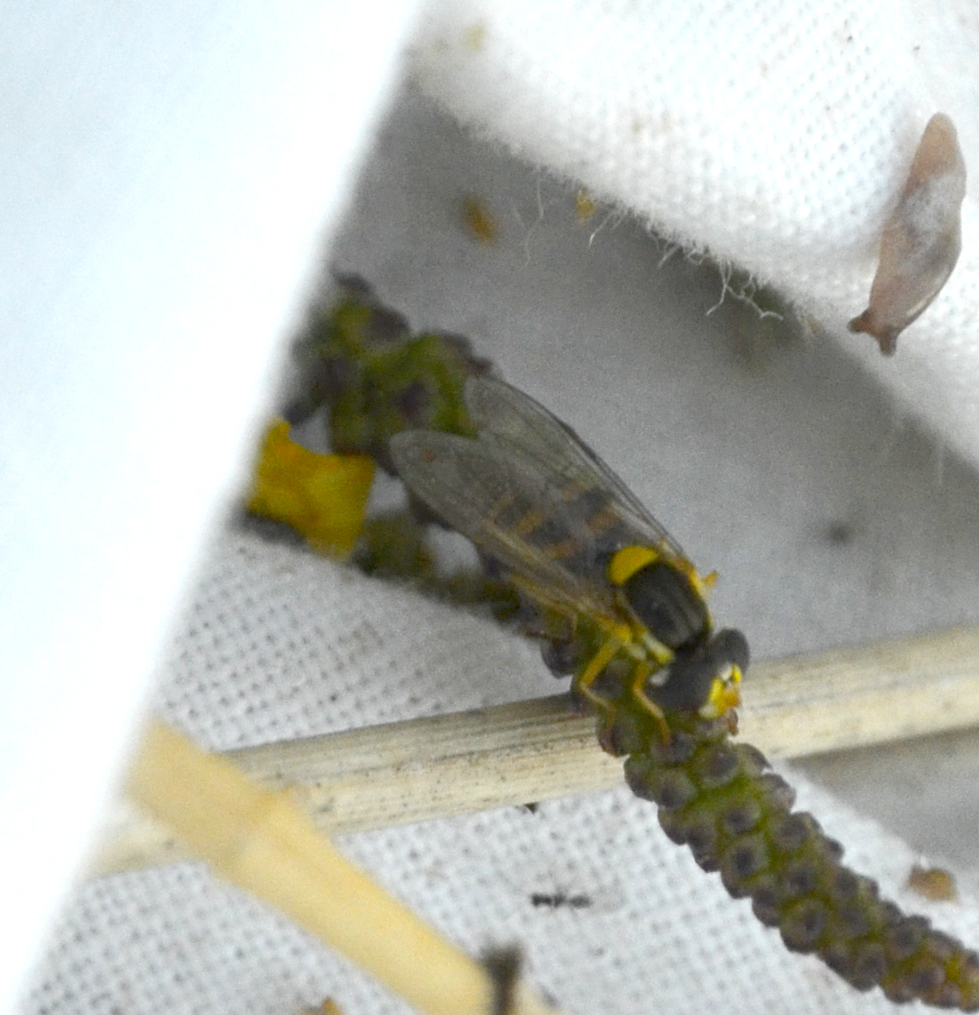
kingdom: Animalia
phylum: Arthropoda
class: Insecta
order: Diptera
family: Syrphidae
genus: Sphaerophoria
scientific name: Sphaerophoria
